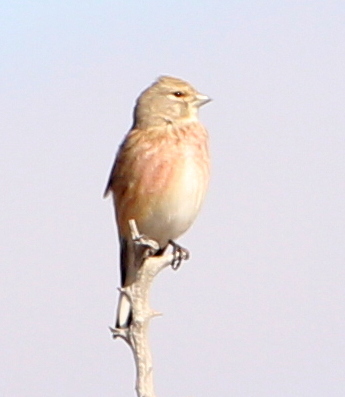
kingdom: Animalia
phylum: Chordata
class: Aves
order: Passeriformes
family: Fringillidae
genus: Linaria
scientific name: Linaria cannabina
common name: Common linnet
